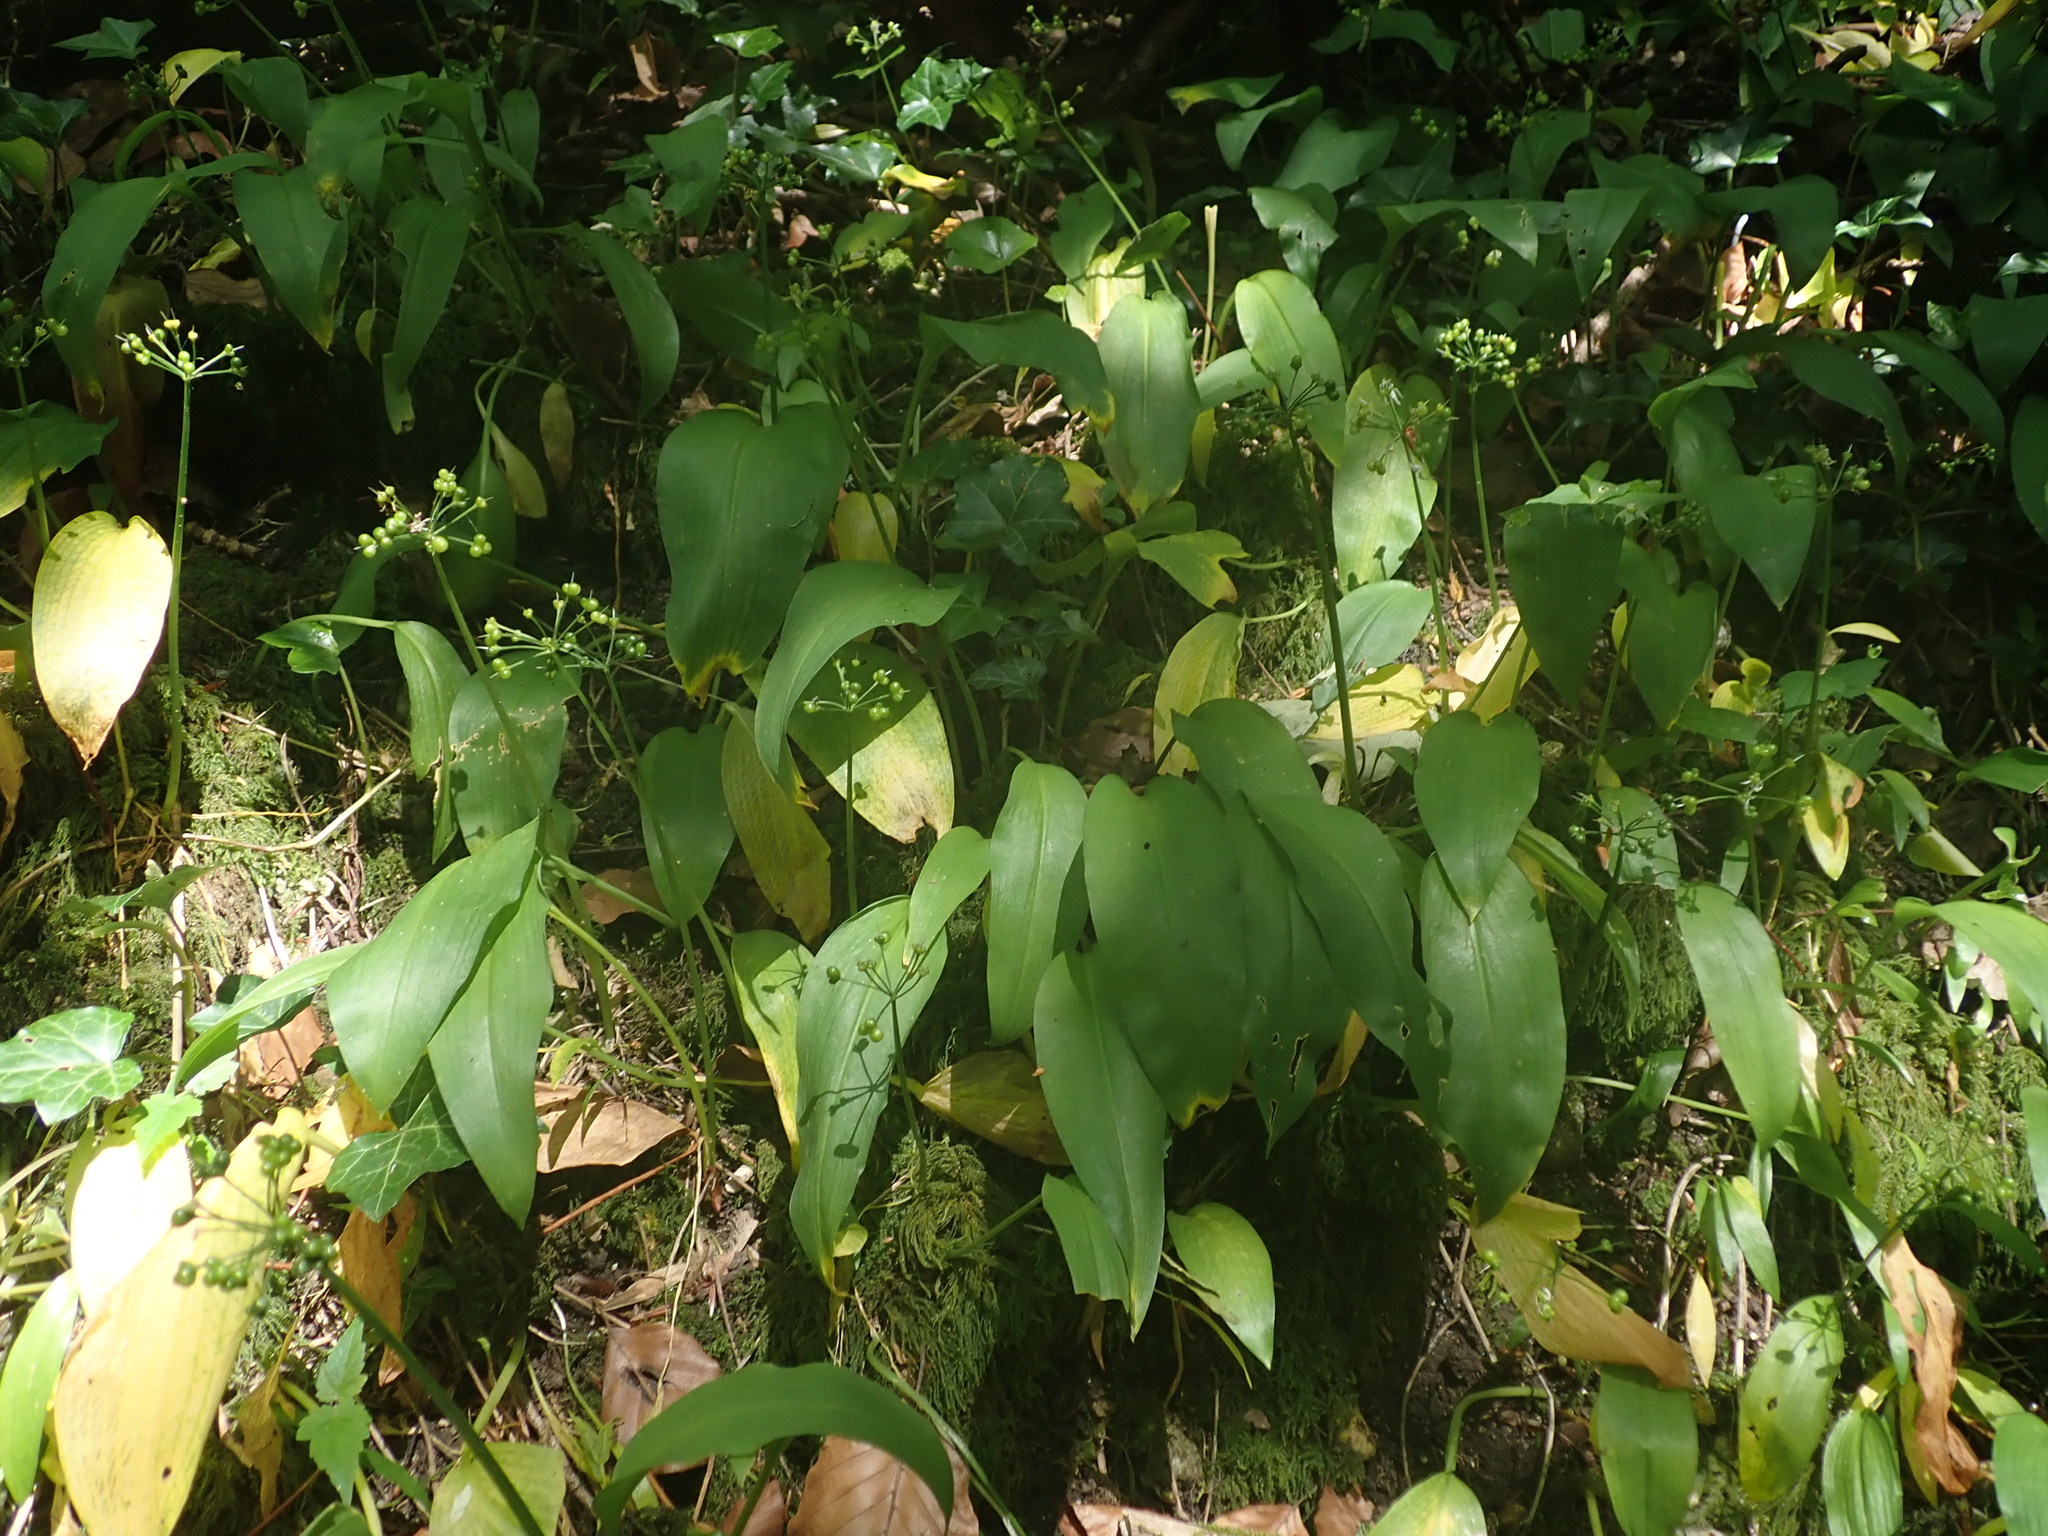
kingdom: Plantae
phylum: Tracheophyta
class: Liliopsida
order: Asparagales
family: Amaryllidaceae
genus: Allium
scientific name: Allium ursinum
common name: Ramsons
